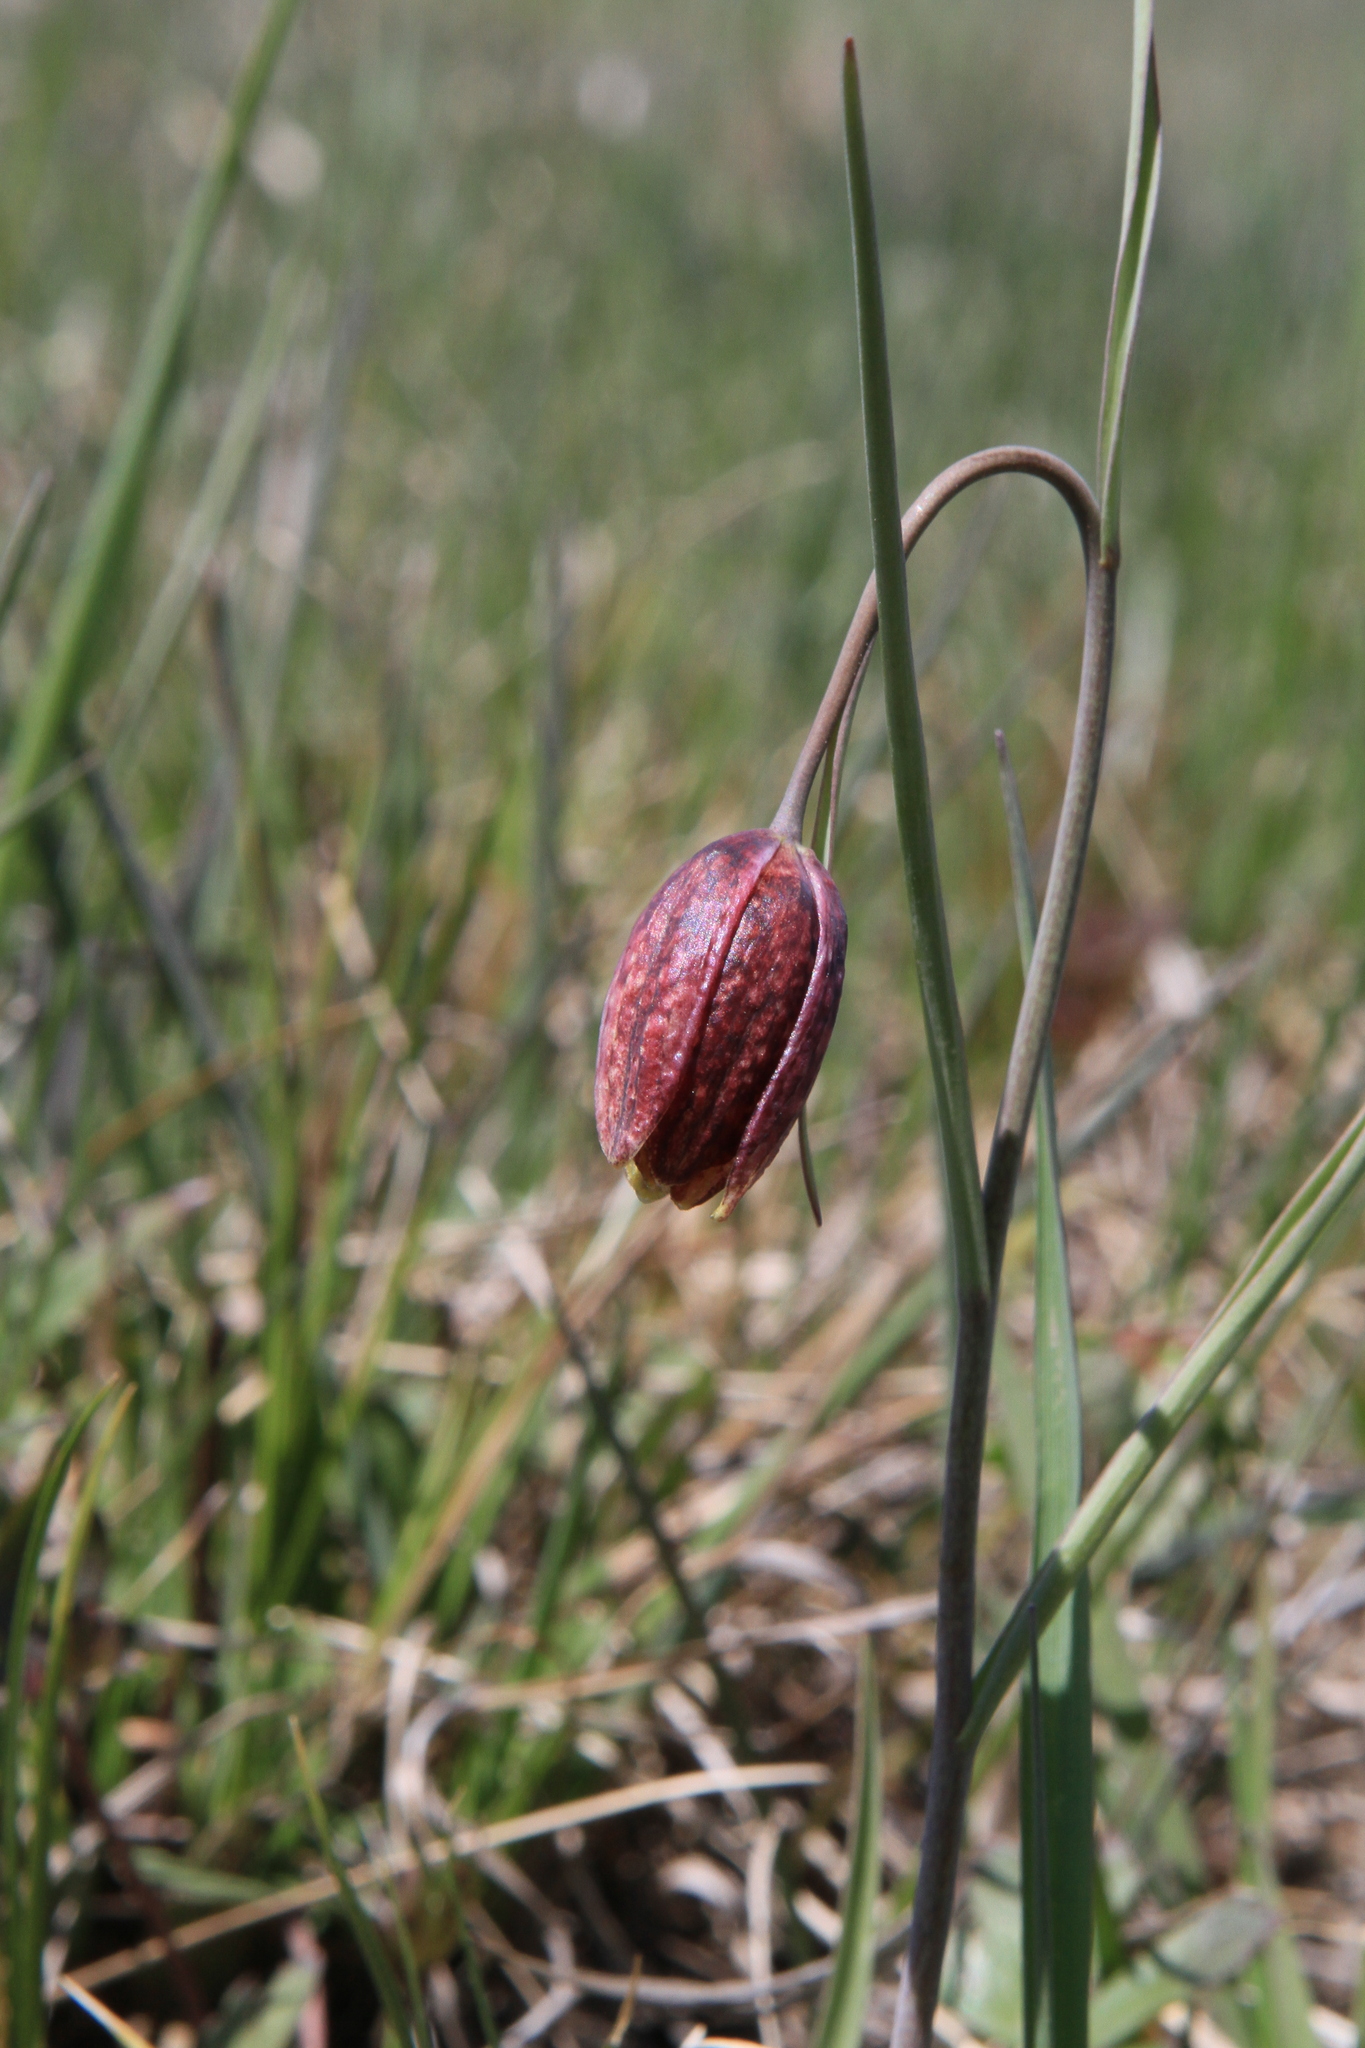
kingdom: Plantae
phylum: Tracheophyta
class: Liliopsida
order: Liliales
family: Liliaceae
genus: Fritillaria
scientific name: Fritillaria meleagroides
